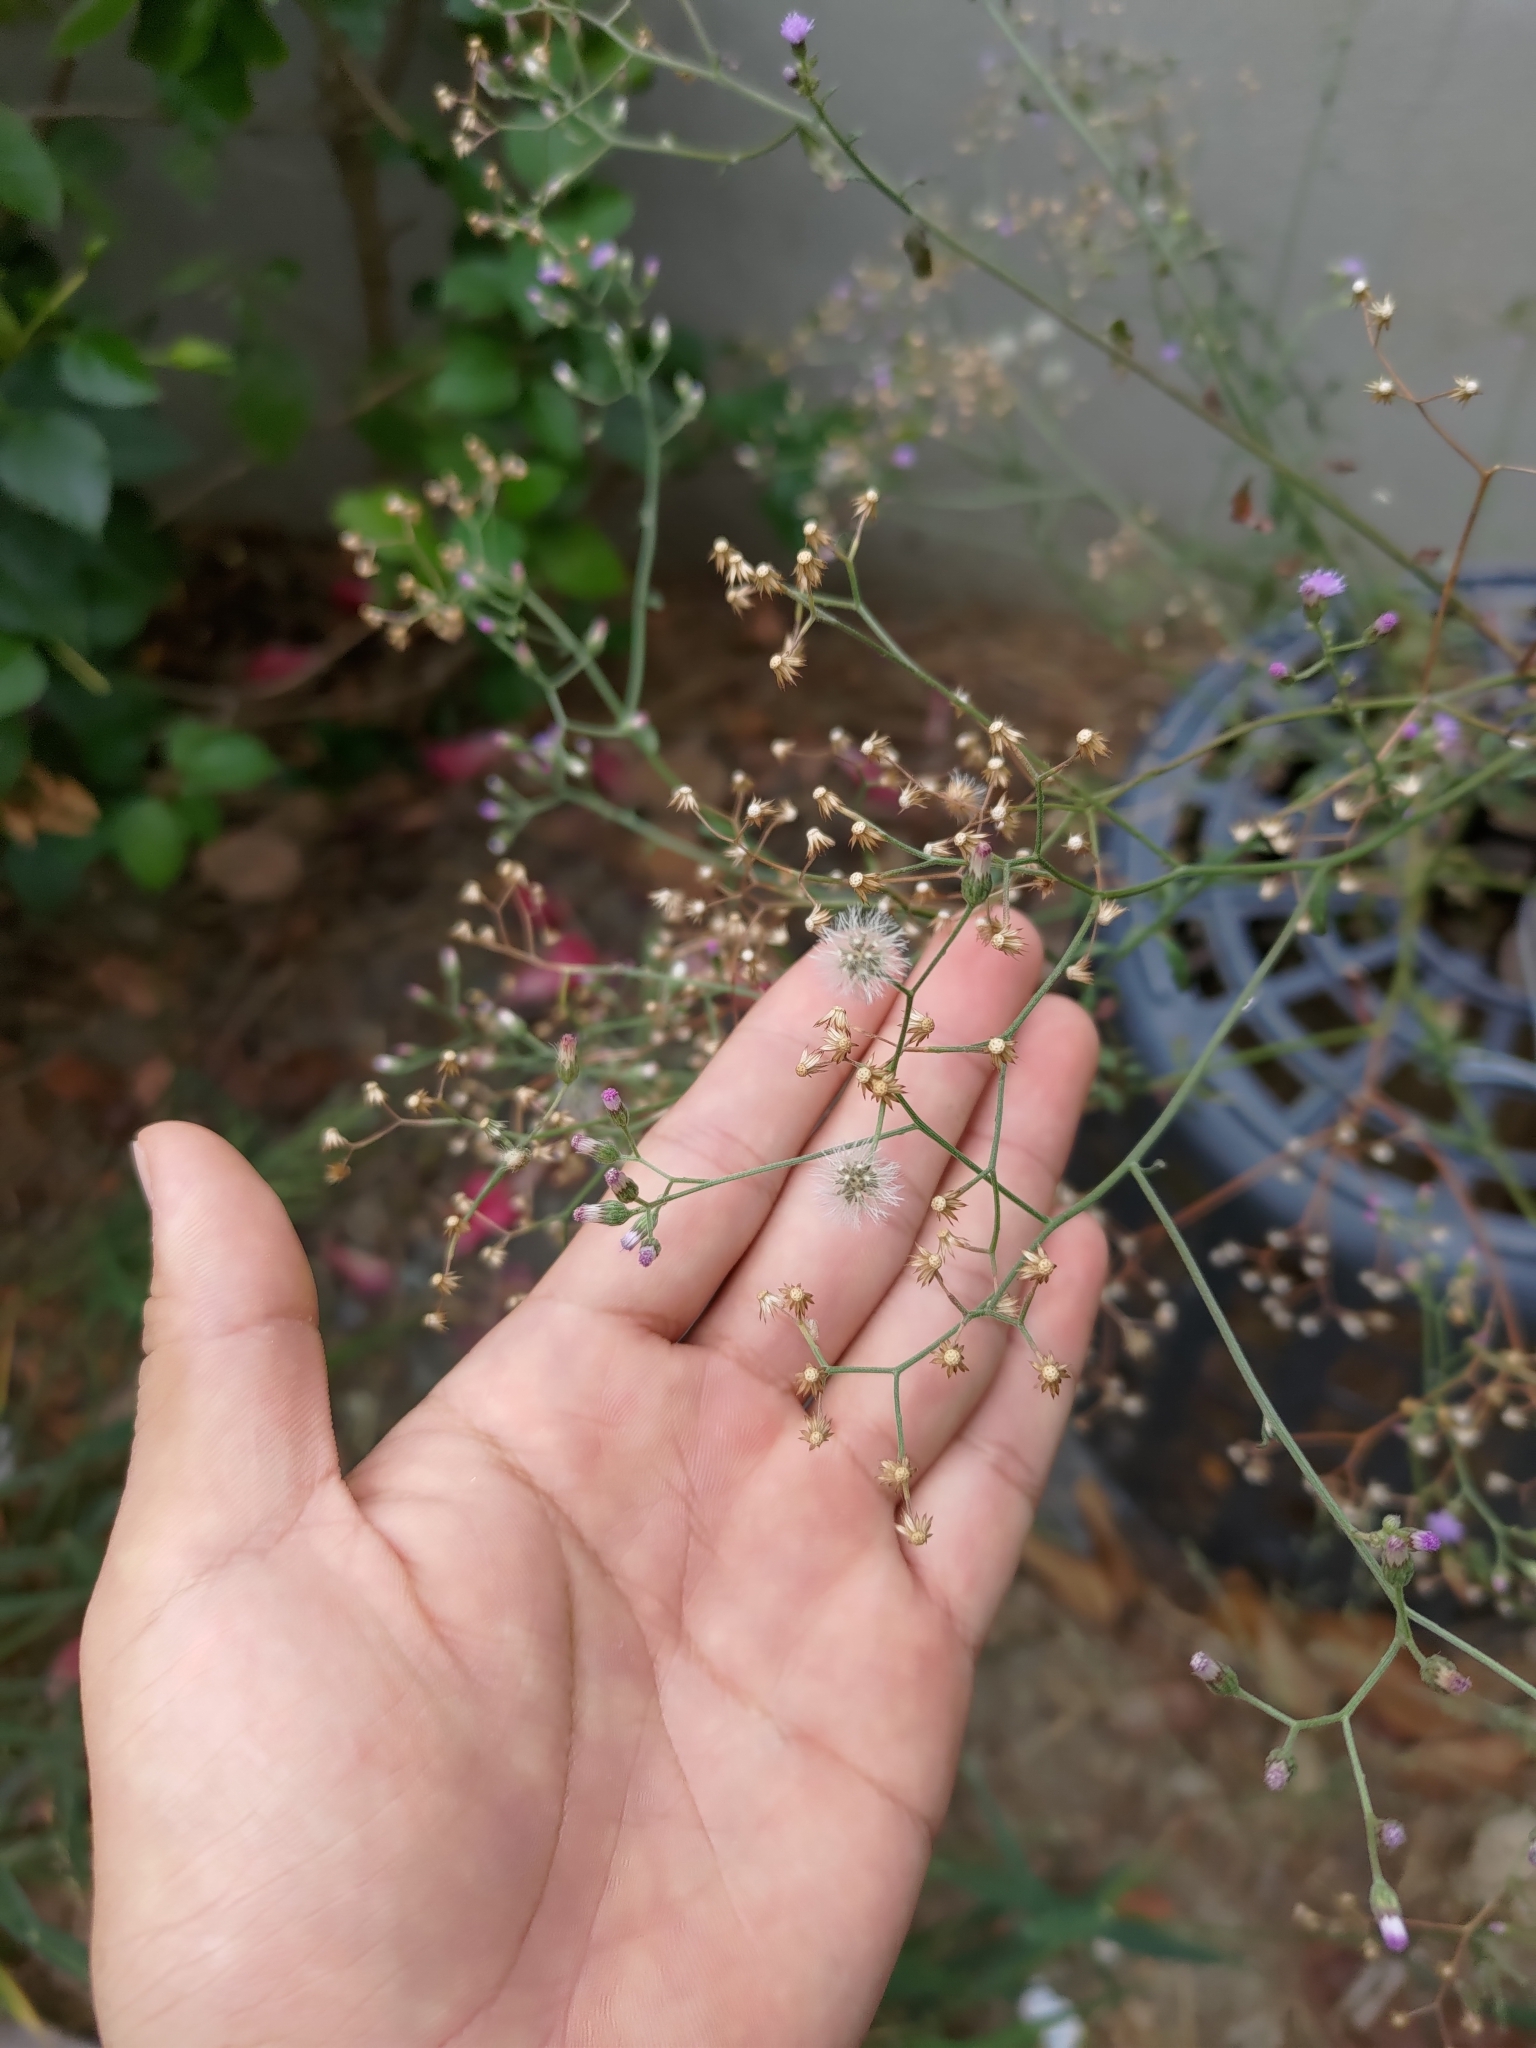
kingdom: Plantae
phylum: Tracheophyta
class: Magnoliopsida
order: Asterales
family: Asteraceae
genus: Cyanthillium
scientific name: Cyanthillium cinereum
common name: Little ironweed
